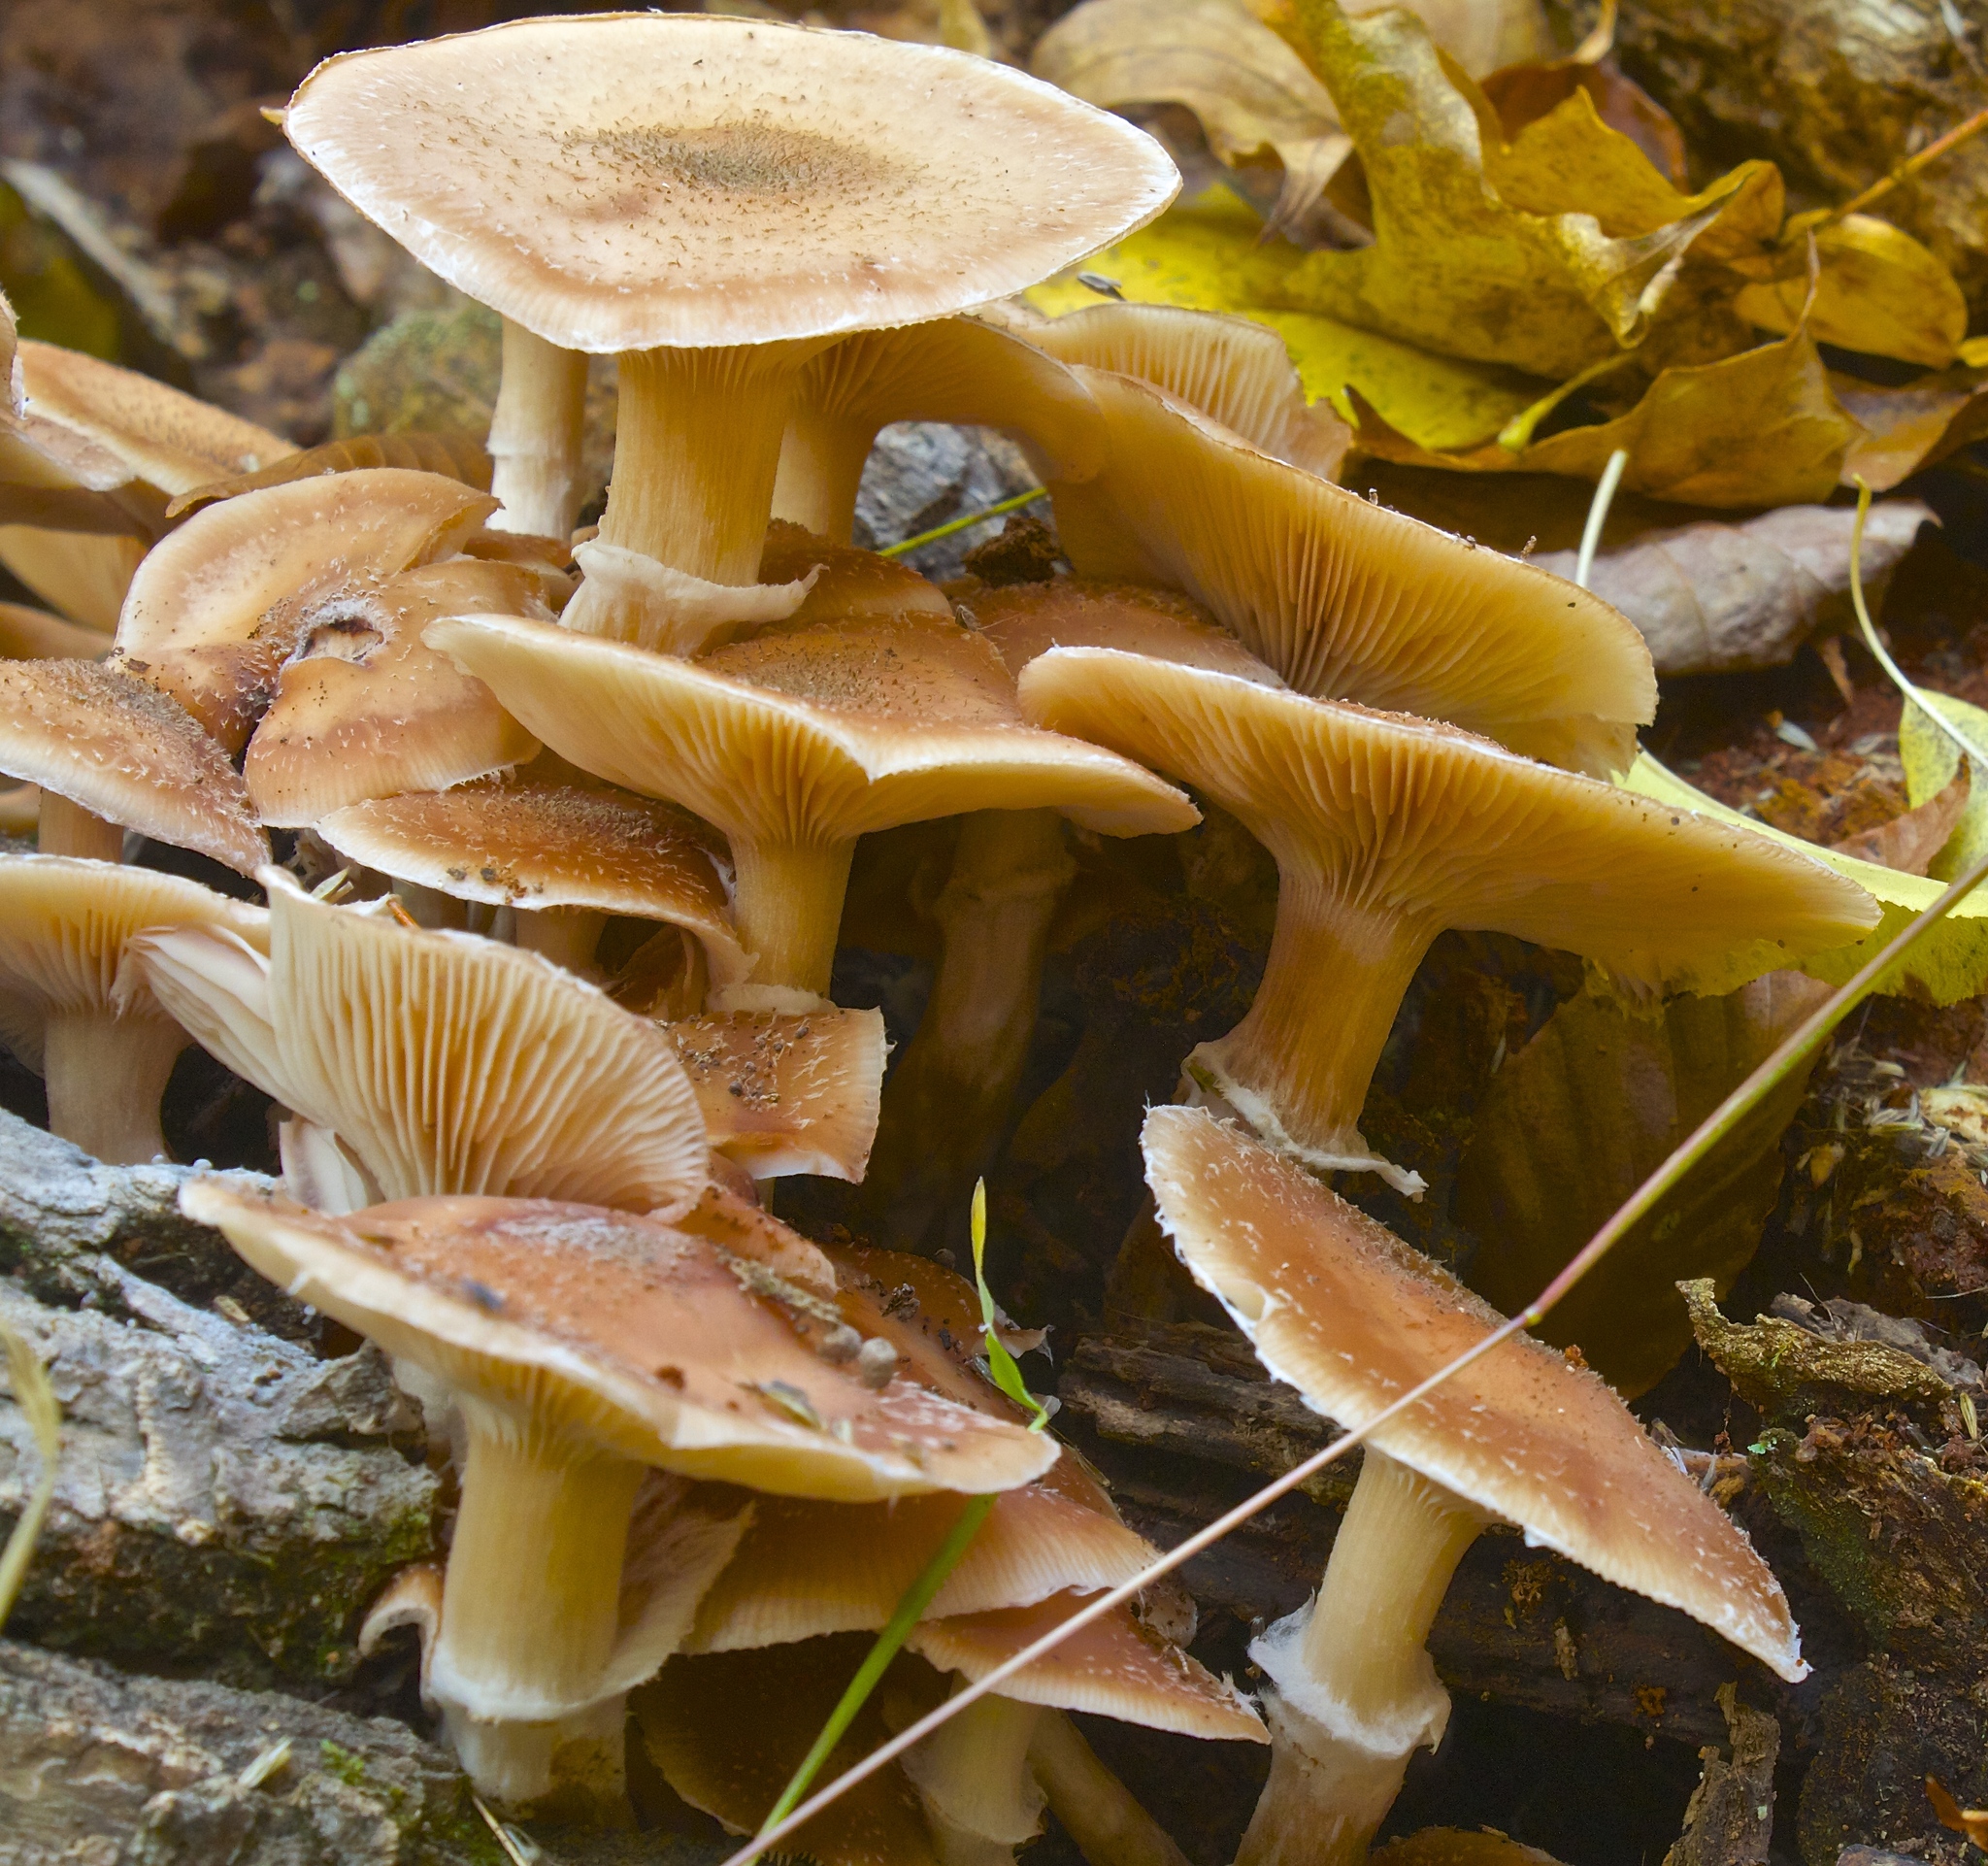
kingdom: Fungi
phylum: Basidiomycota
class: Agaricomycetes
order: Agaricales
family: Physalacriaceae
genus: Armillaria
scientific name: Armillaria mellea
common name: Honey fungus
